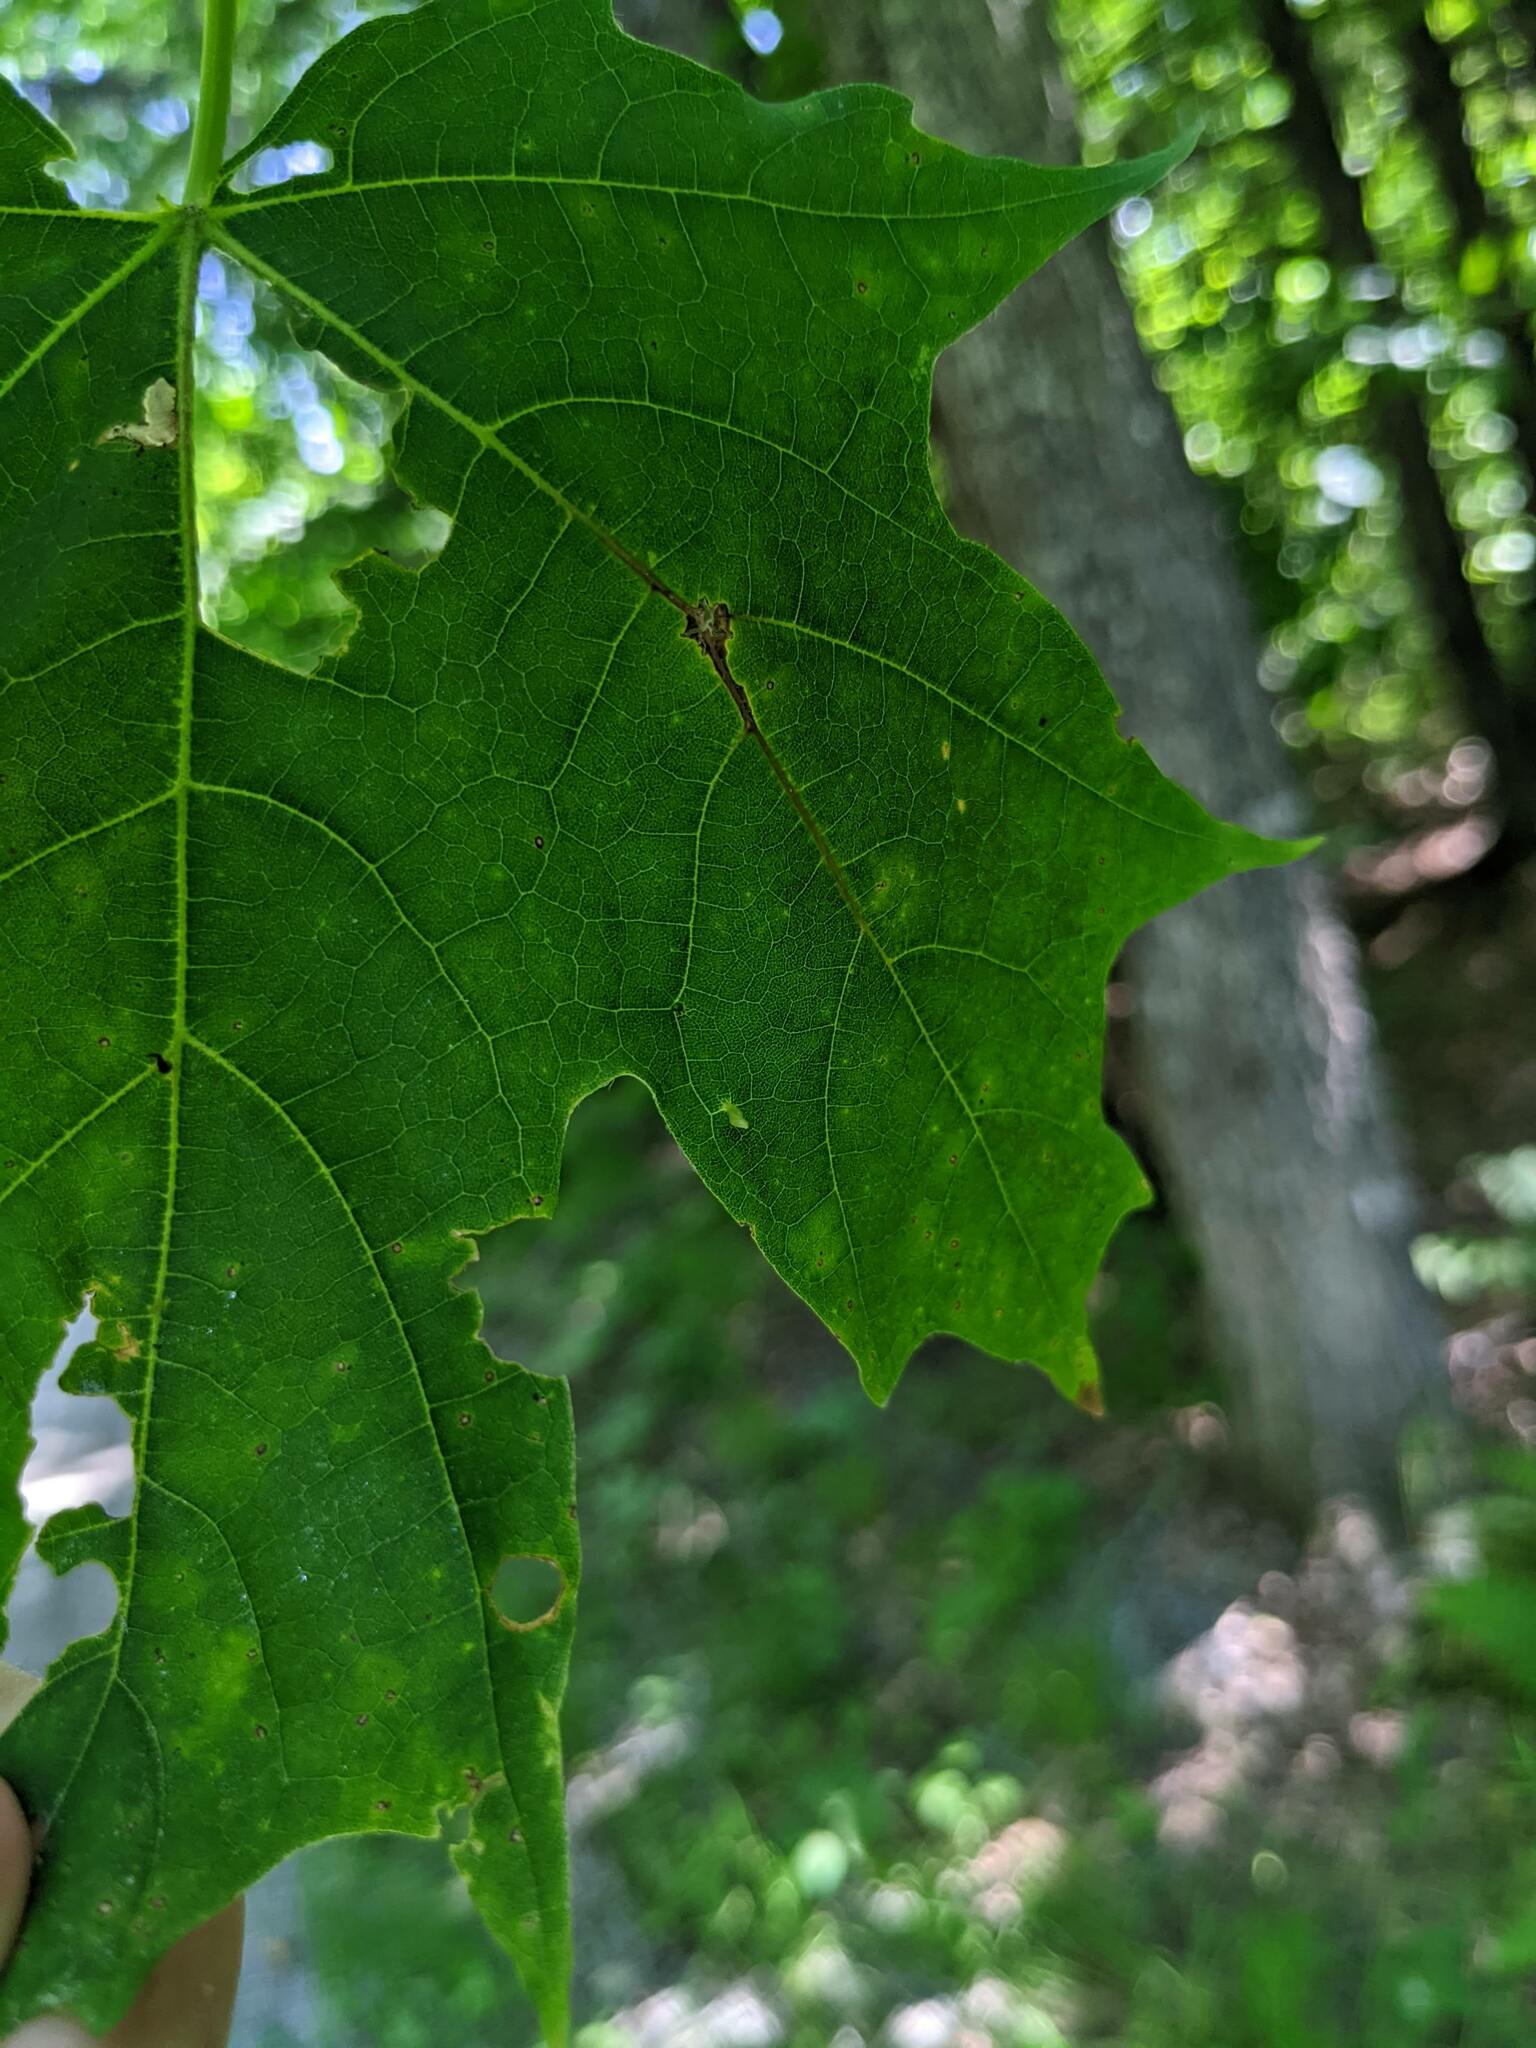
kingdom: Plantae
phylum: Tracheophyta
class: Magnoliopsida
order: Sapindales
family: Sapindaceae
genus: Acer
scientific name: Acer saccharum
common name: Sugar maple
